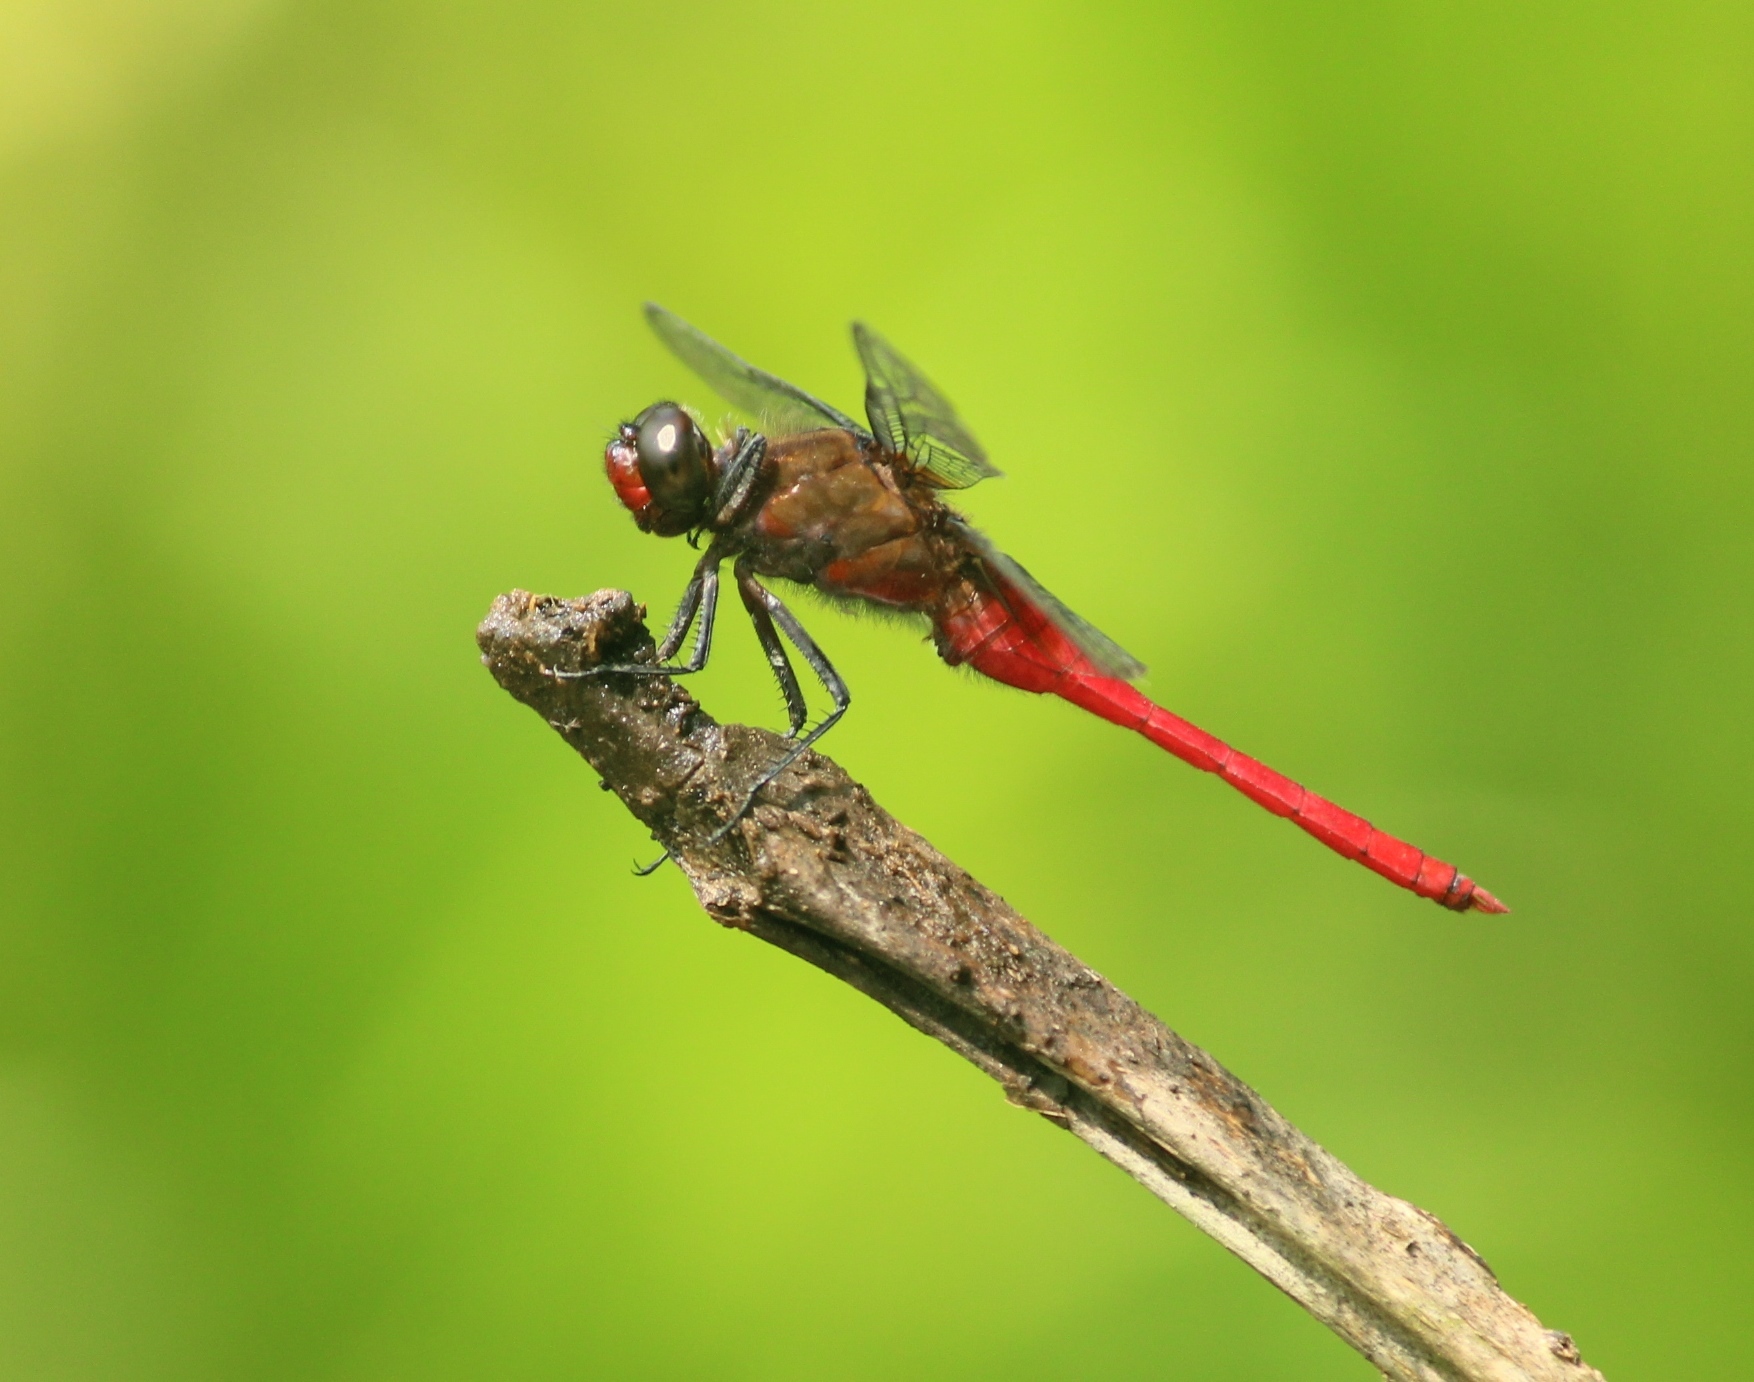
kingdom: Animalia
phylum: Arthropoda
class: Insecta
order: Odonata
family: Libellulidae
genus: Orthetrum
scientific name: Orthetrum chrysis
